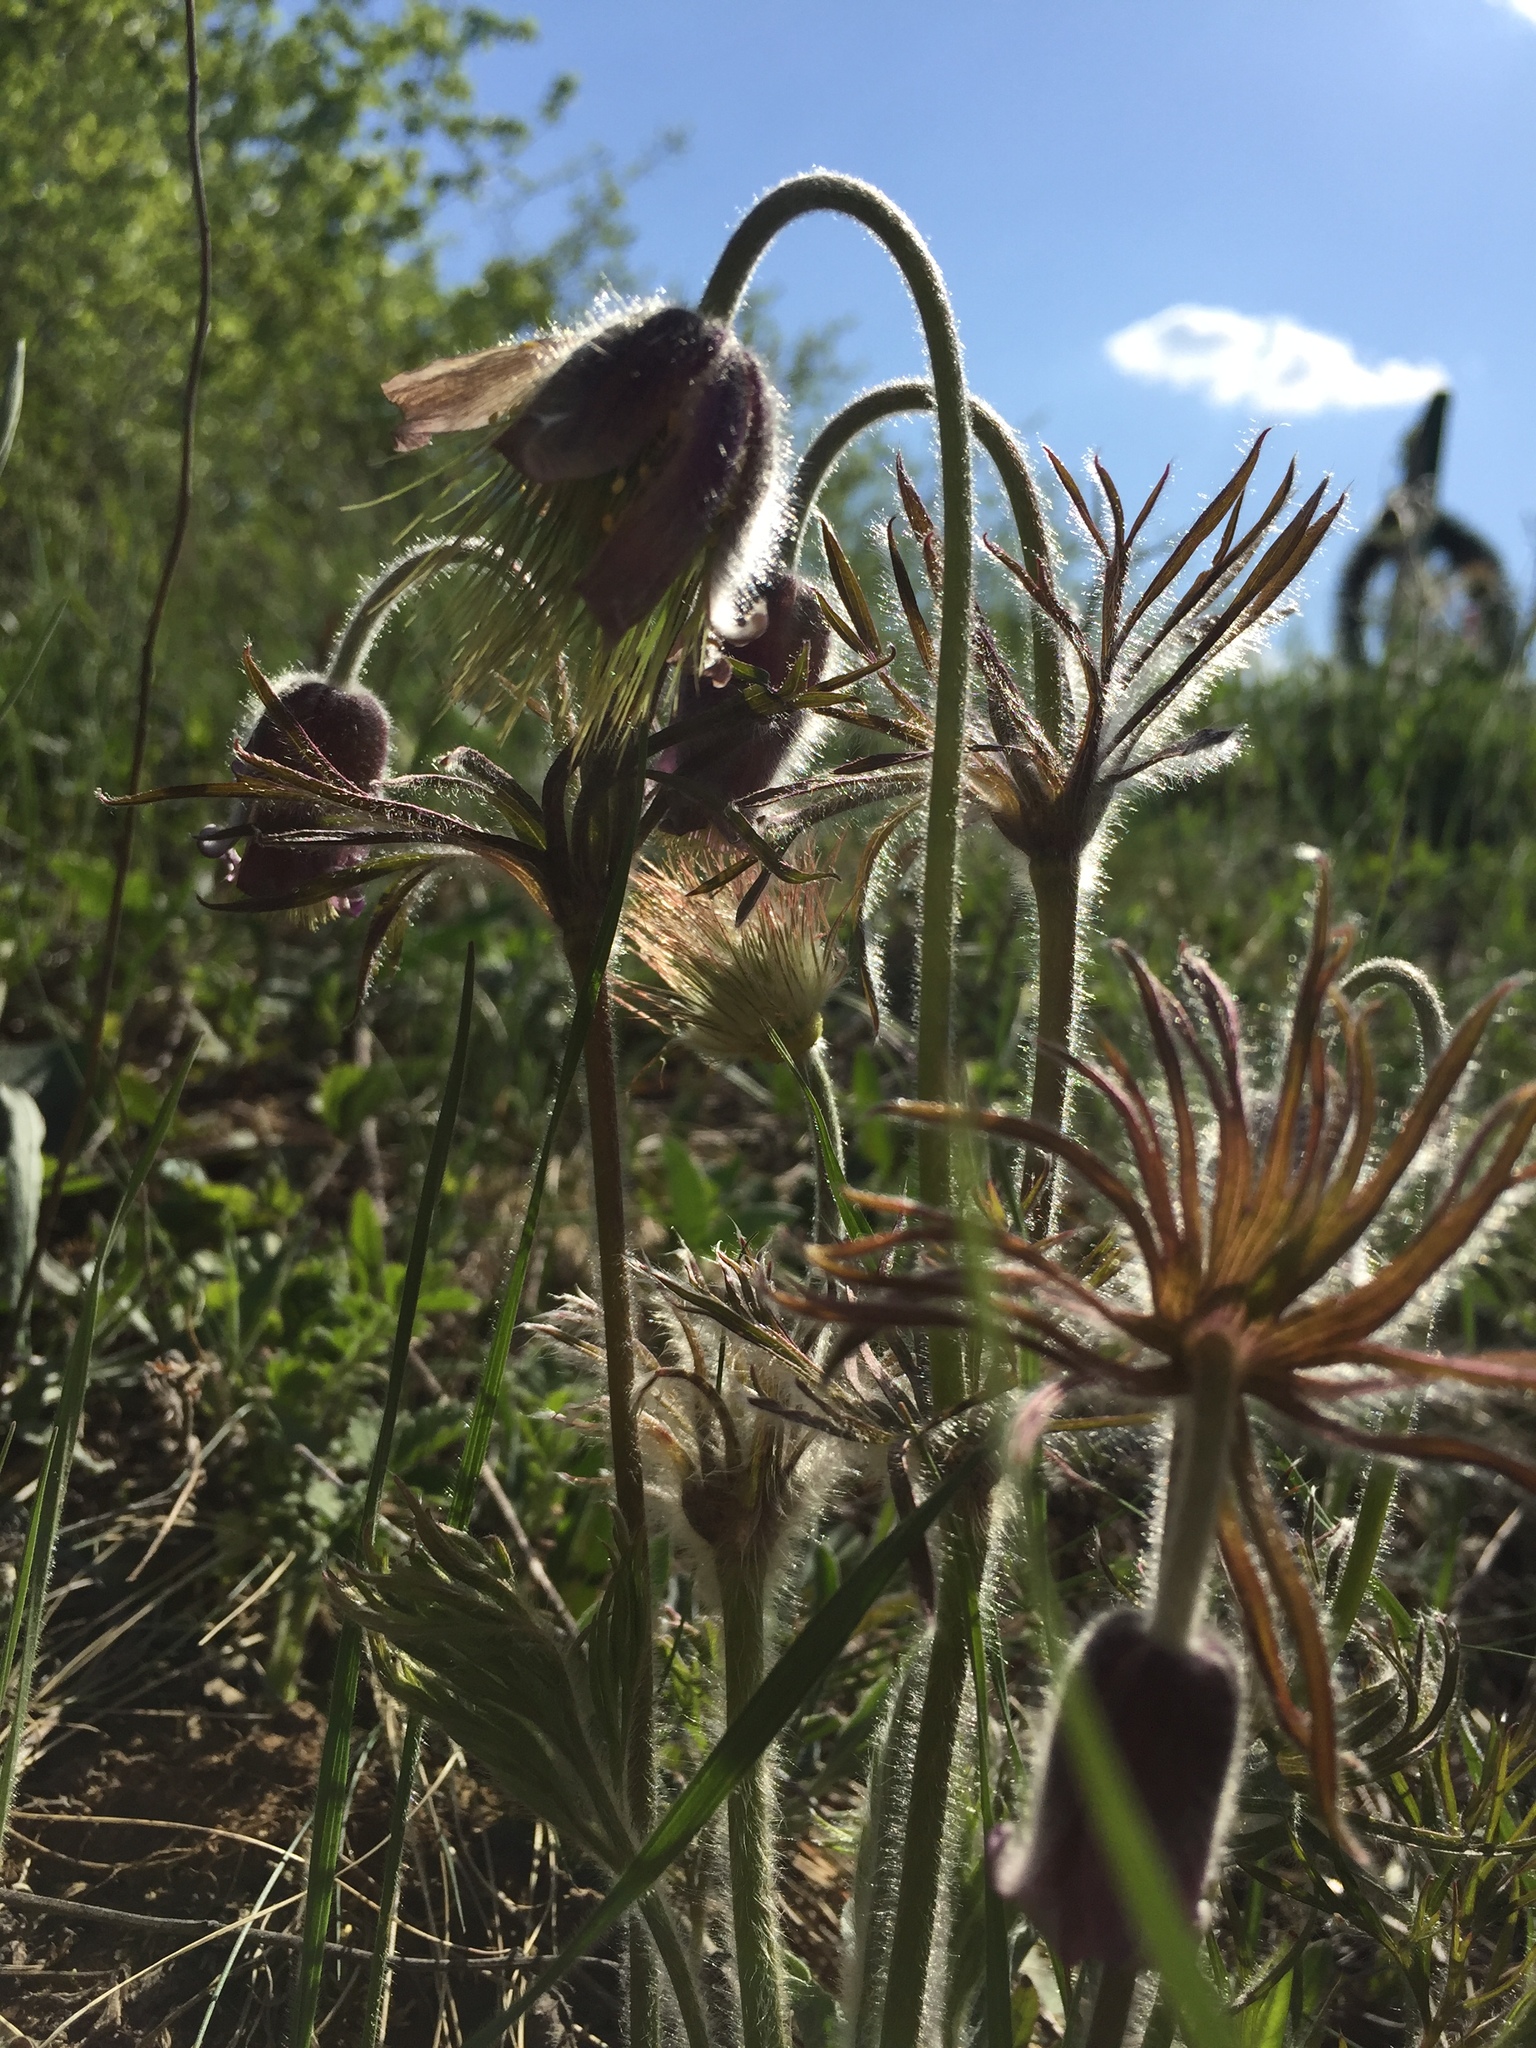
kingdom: Plantae
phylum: Tracheophyta
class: Magnoliopsida
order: Ranunculales
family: Ranunculaceae
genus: Pulsatilla
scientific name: Pulsatilla pratensis
